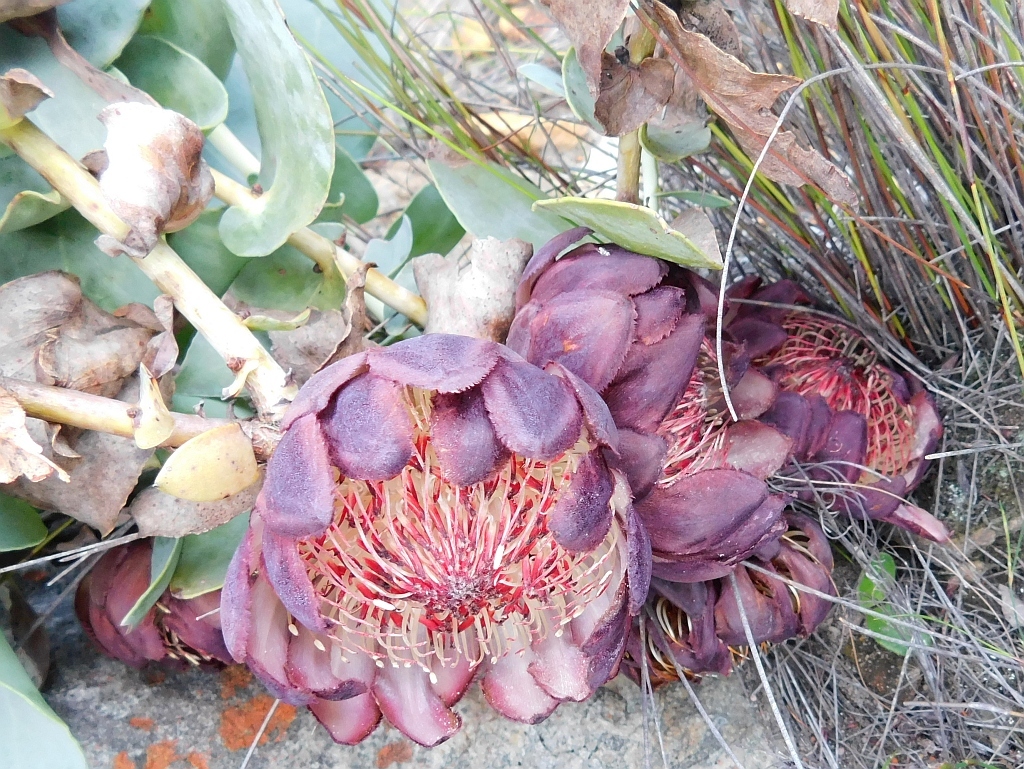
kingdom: Plantae
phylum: Tracheophyta
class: Magnoliopsida
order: Proteales
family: Proteaceae
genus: Protea
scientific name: Protea amplexicaulis
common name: Clasping-leaf sugarbush
